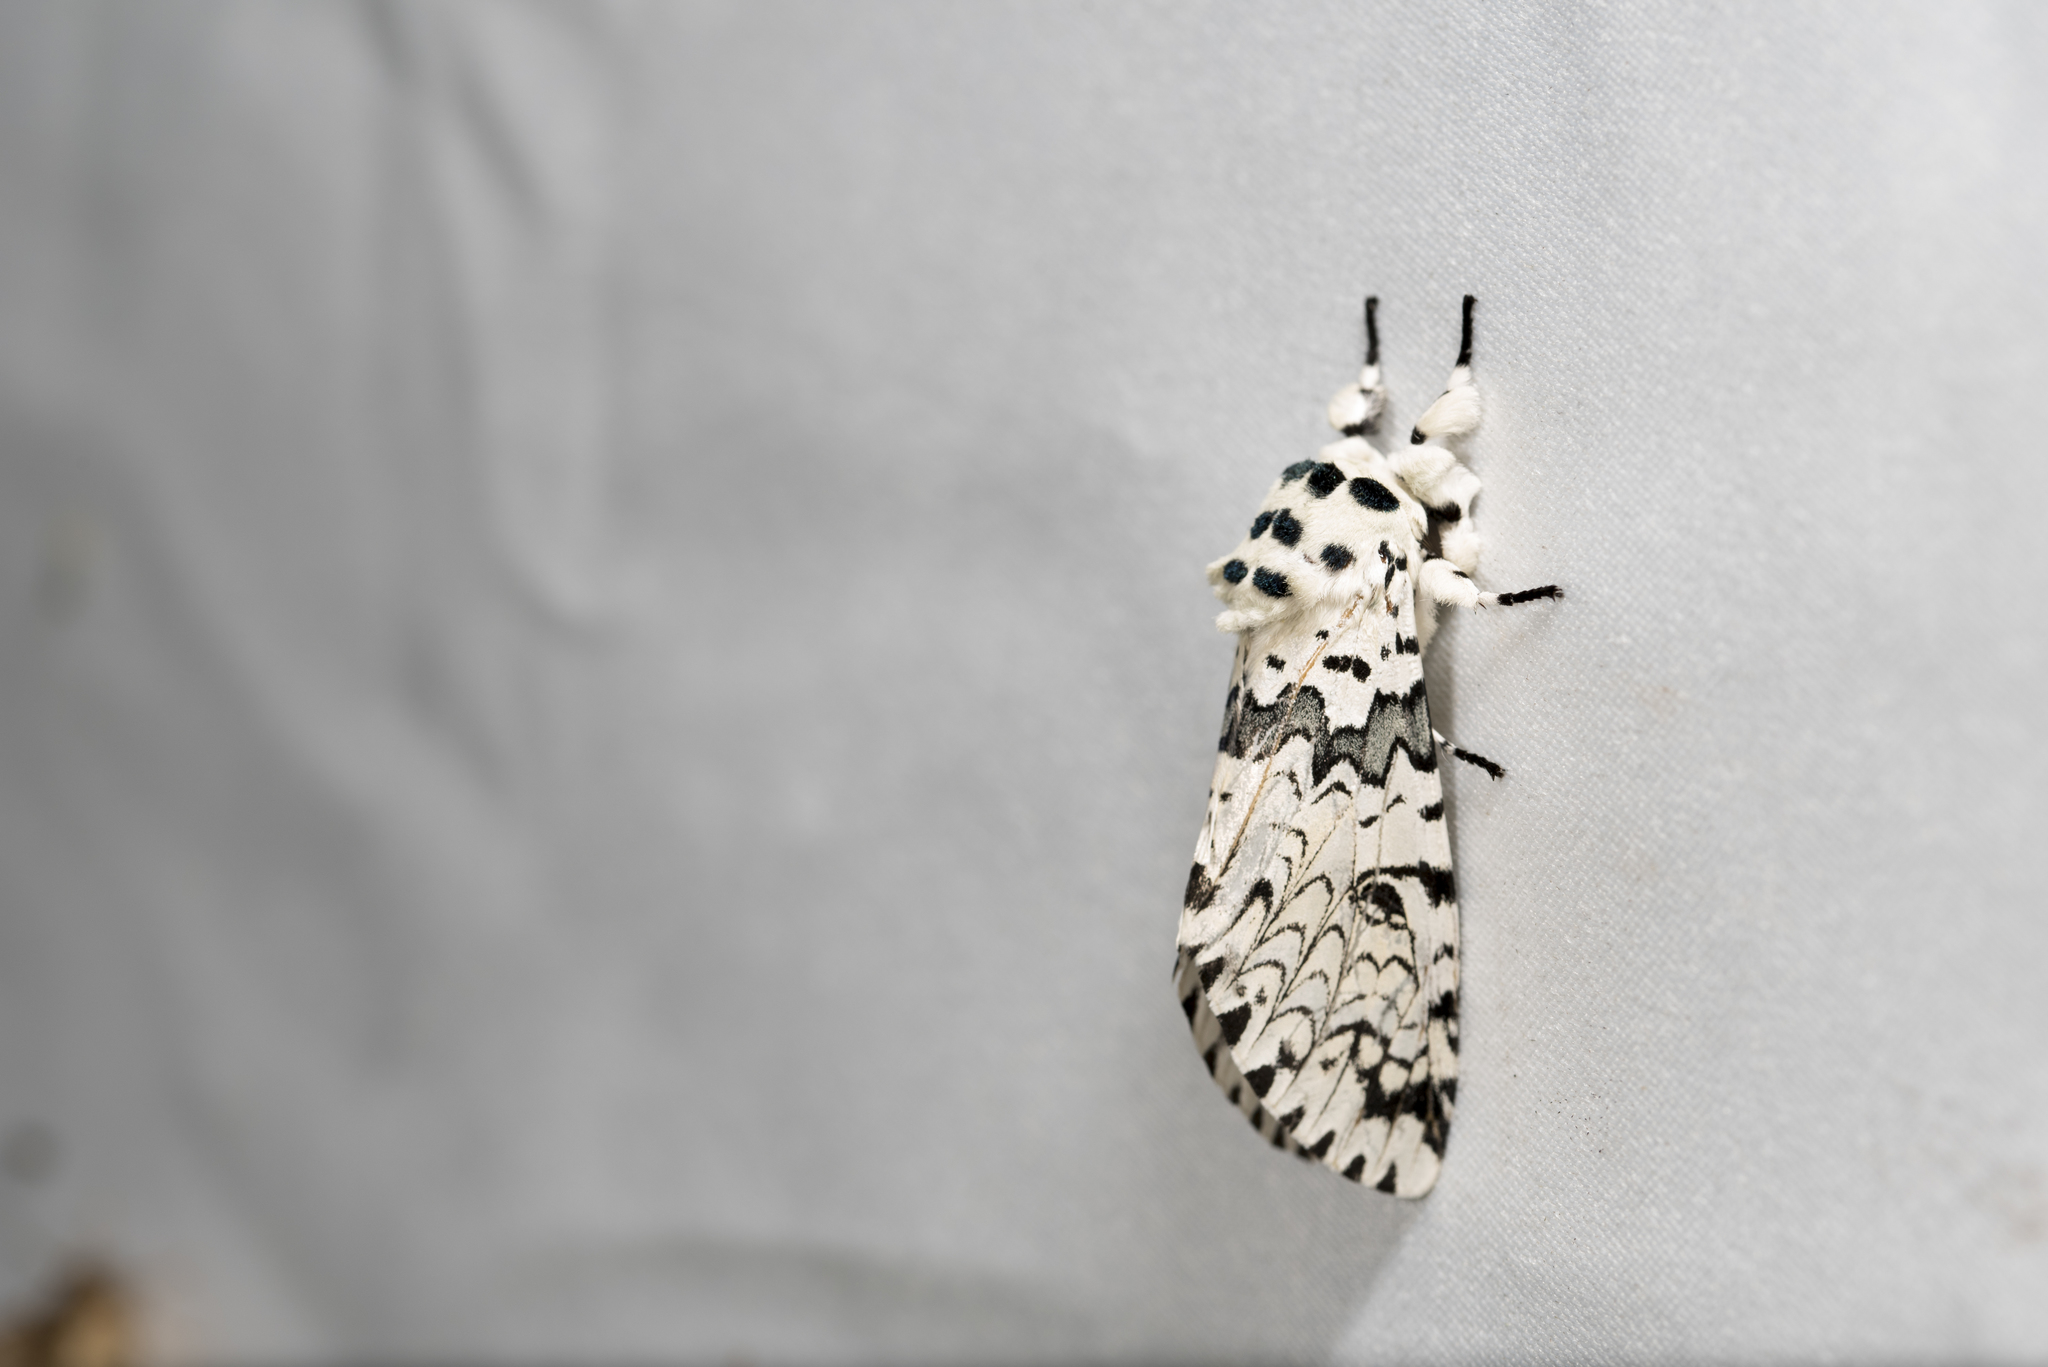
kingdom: Animalia
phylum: Arthropoda
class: Insecta
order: Lepidoptera
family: Notodontidae
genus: Kamalia
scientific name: Kamalia tattakana
